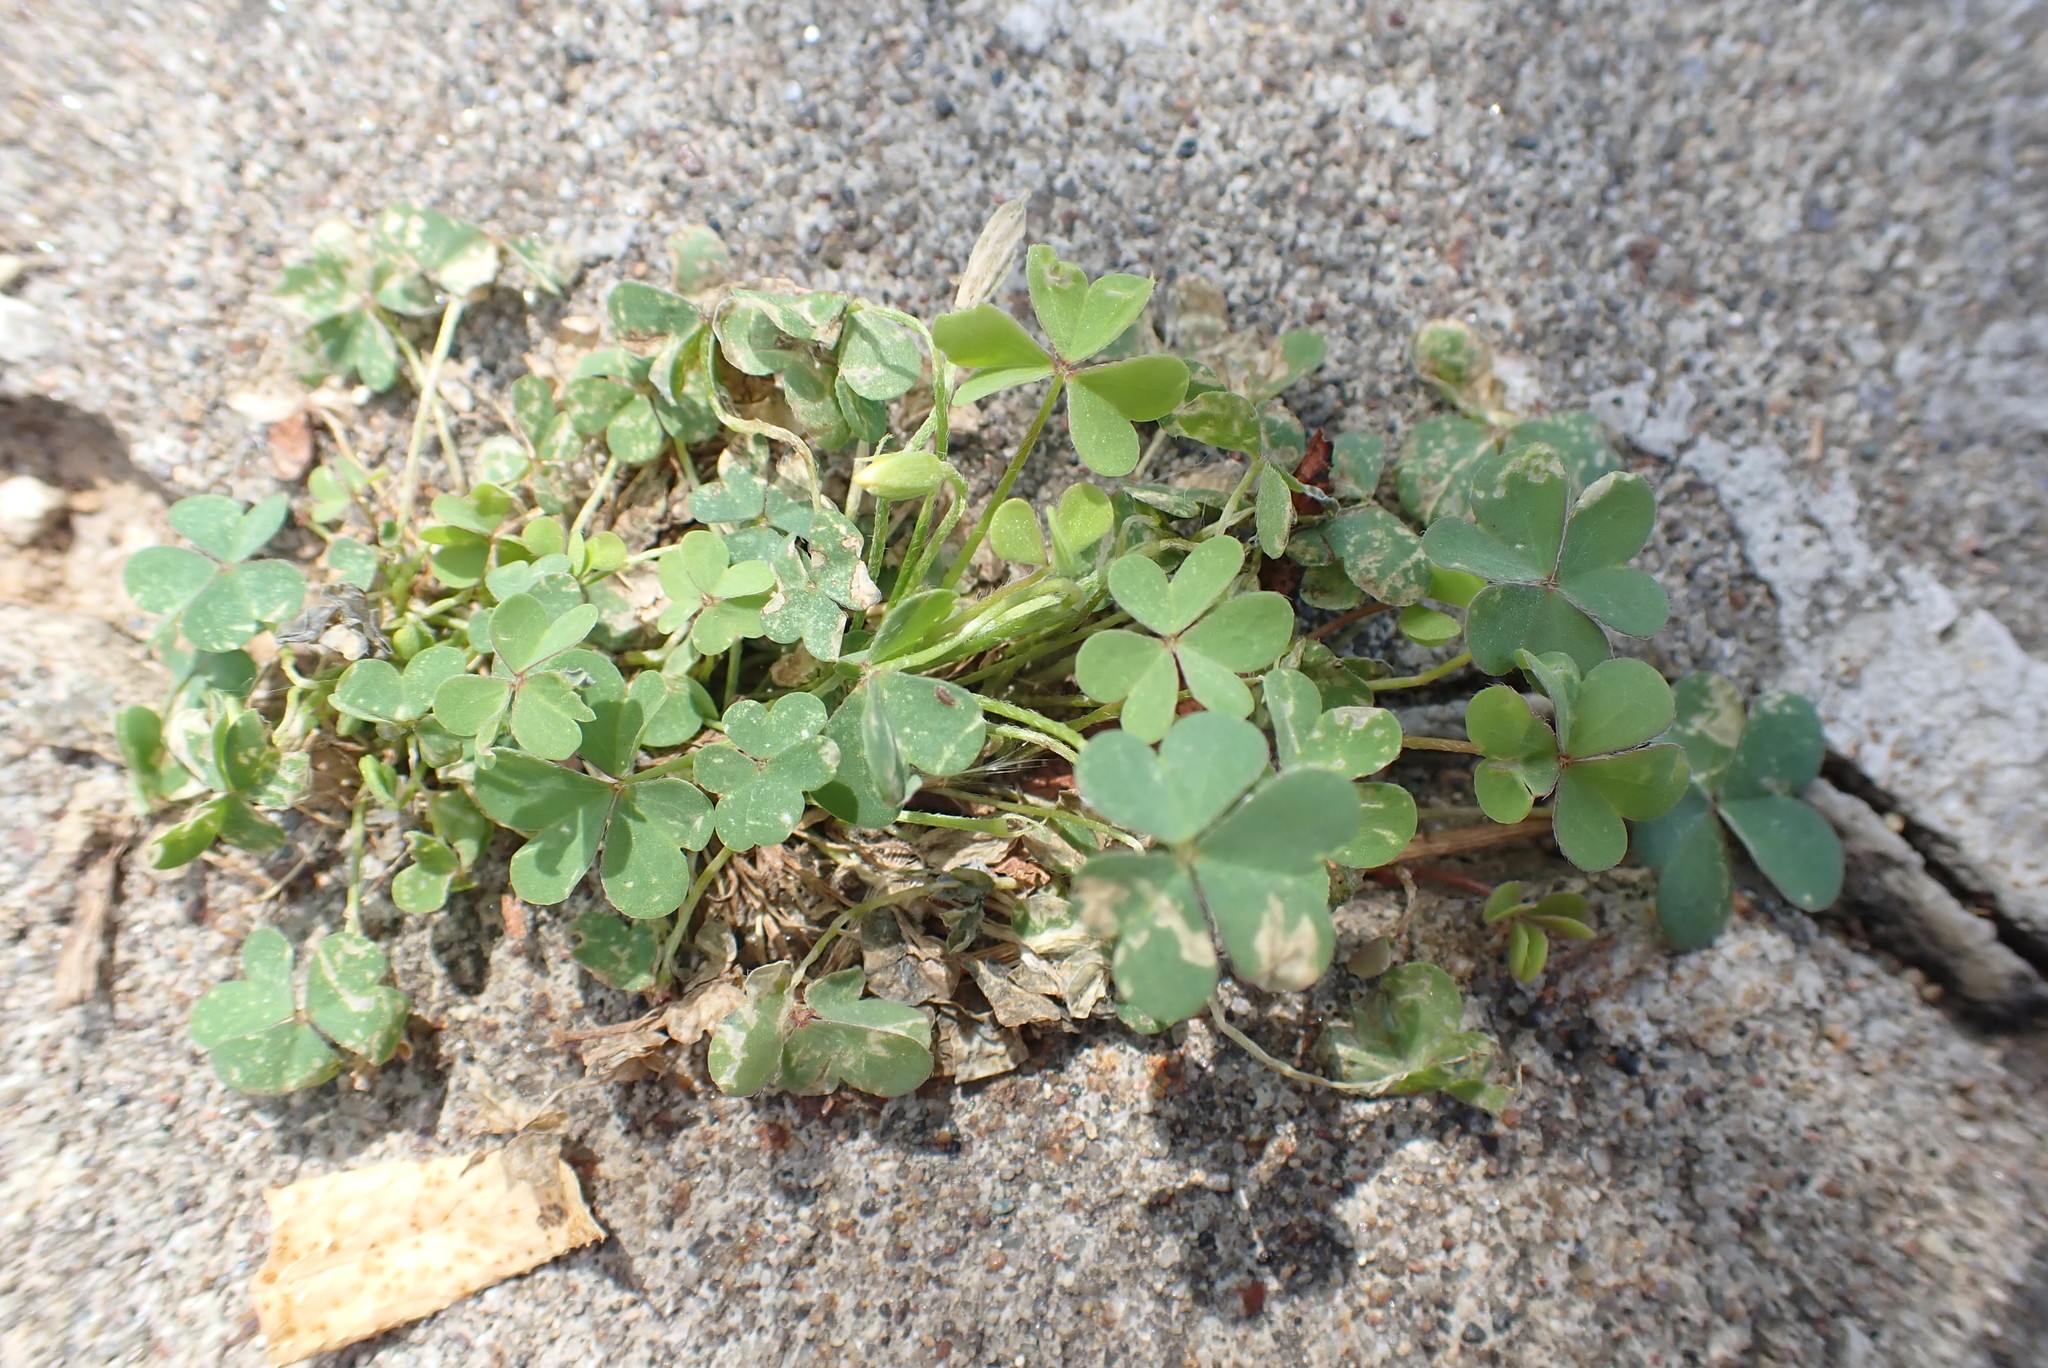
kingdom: Plantae
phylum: Tracheophyta
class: Magnoliopsida
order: Oxalidales
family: Oxalidaceae
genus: Oxalis
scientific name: Oxalis corniculata
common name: Procumbent yellow-sorrel
